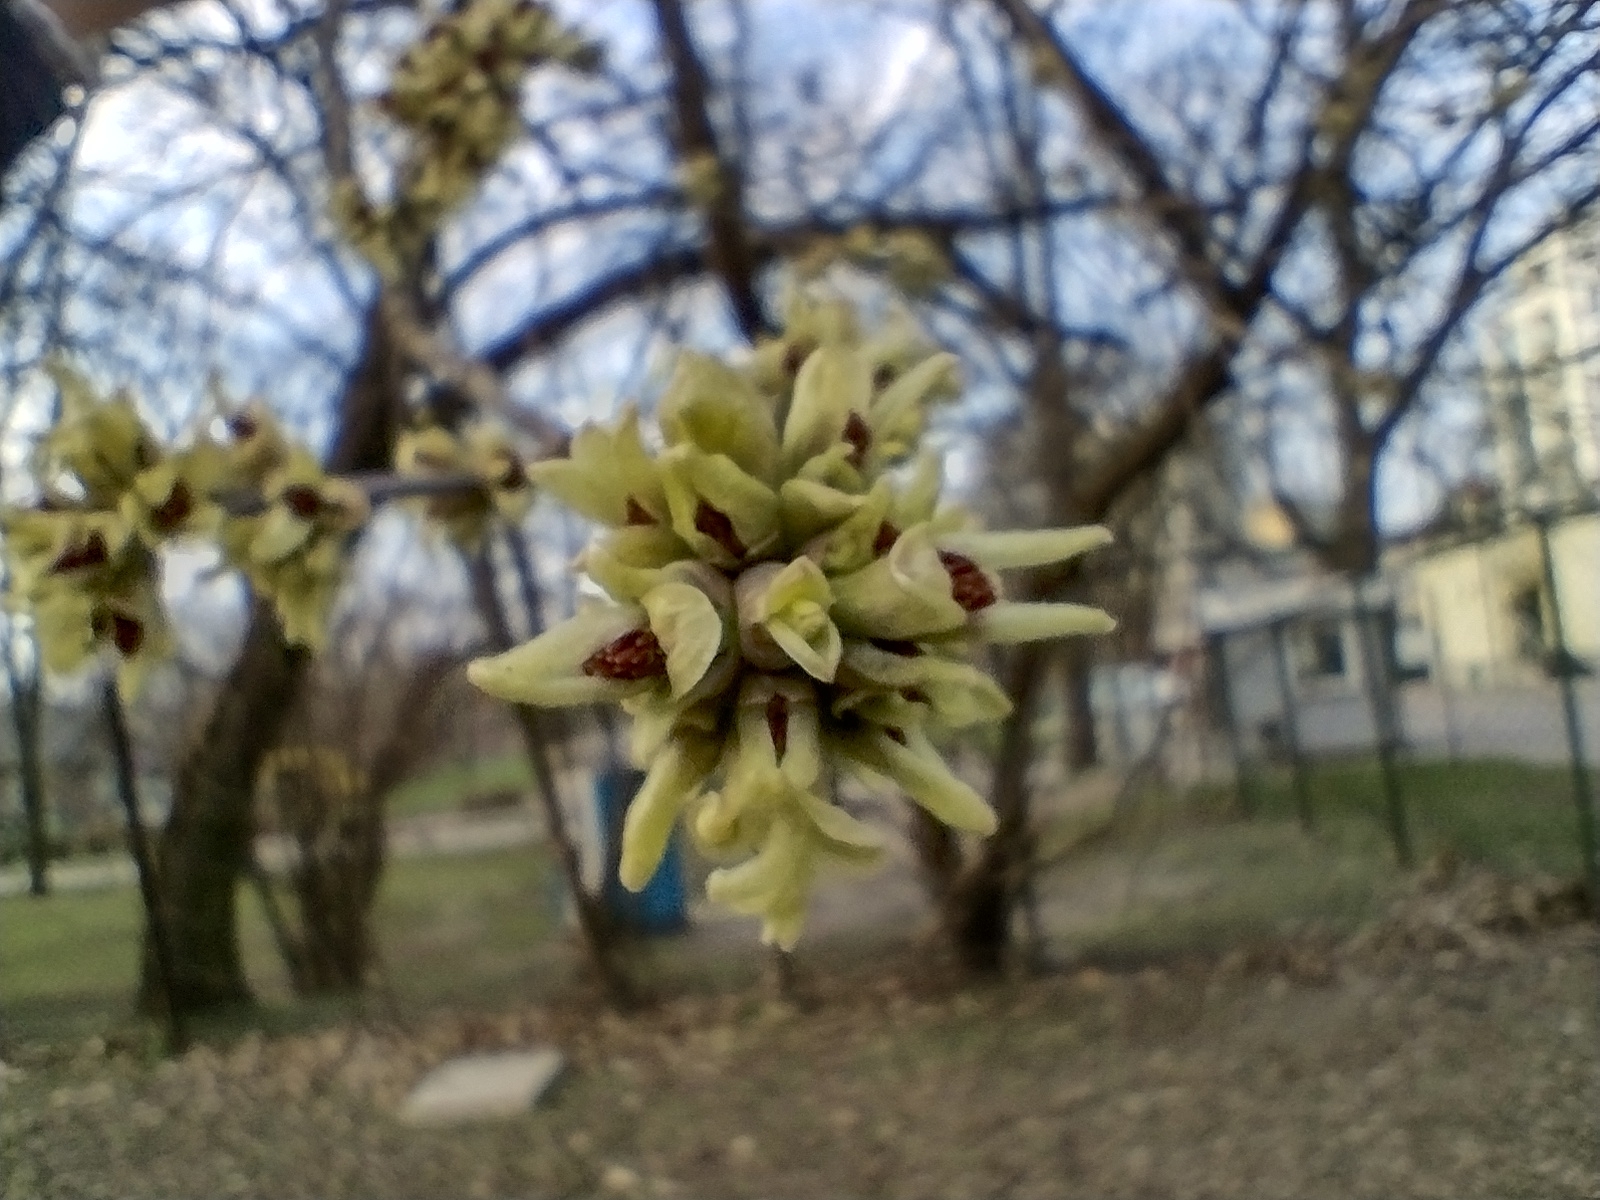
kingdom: Plantae
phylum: Tracheophyta
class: Magnoliopsida
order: Sapindales
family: Sapindaceae
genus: Acer
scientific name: Acer negundo
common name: Ashleaf maple
